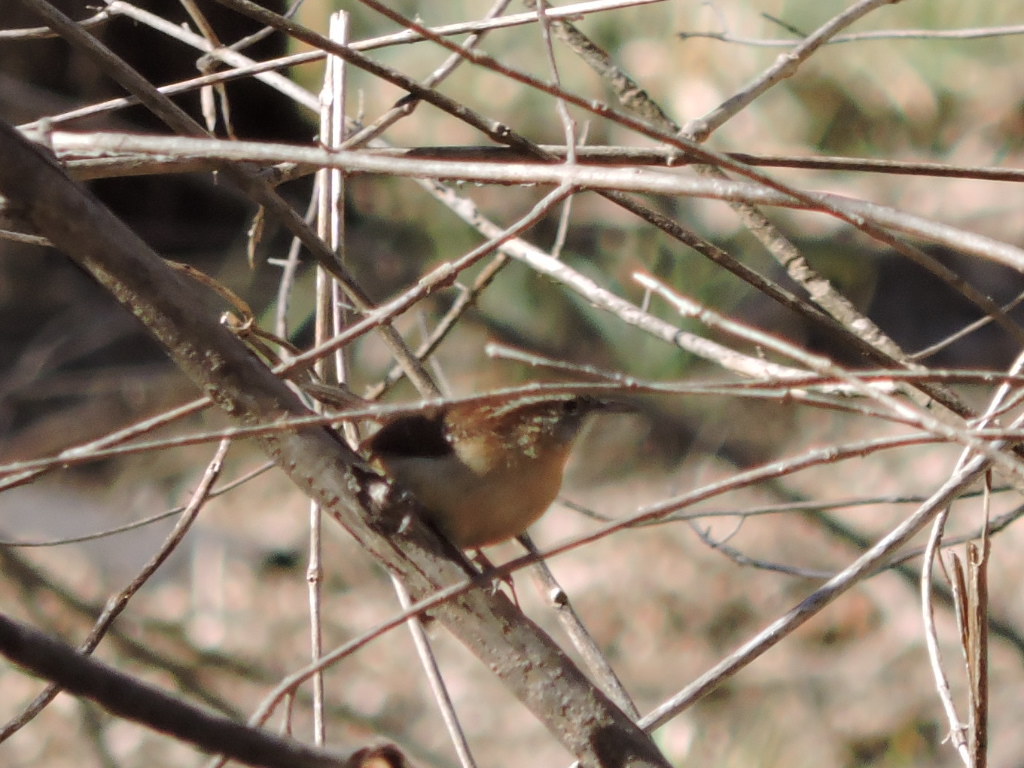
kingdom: Animalia
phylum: Chordata
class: Aves
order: Passeriformes
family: Troglodytidae
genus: Thryothorus
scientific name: Thryothorus ludovicianus
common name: Carolina wren
